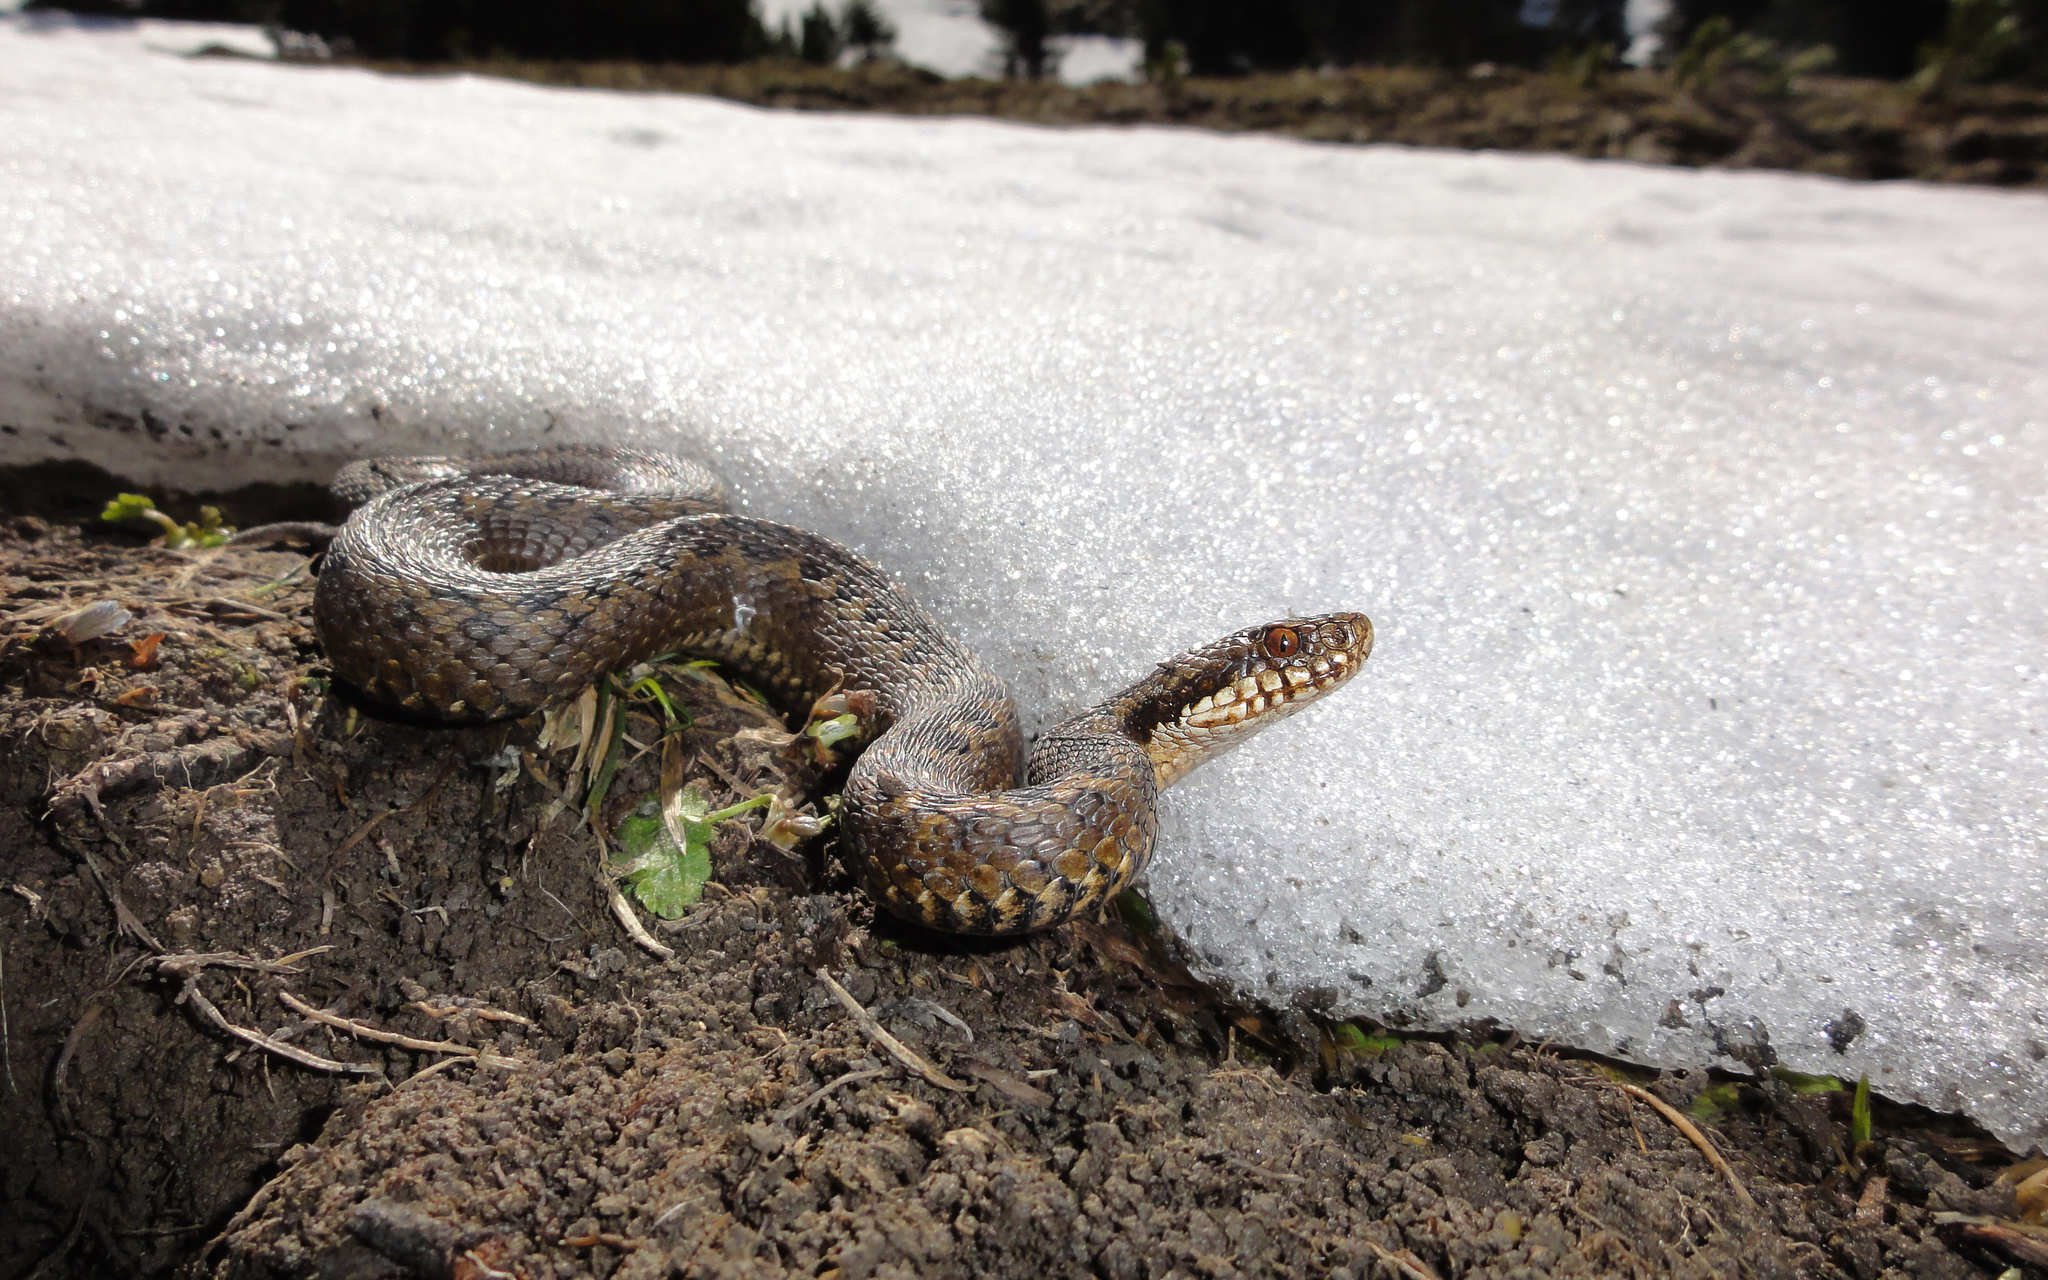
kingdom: Animalia
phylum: Chordata
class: Squamata
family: Viperidae
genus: Vipera
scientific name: Vipera berus
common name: Adder
